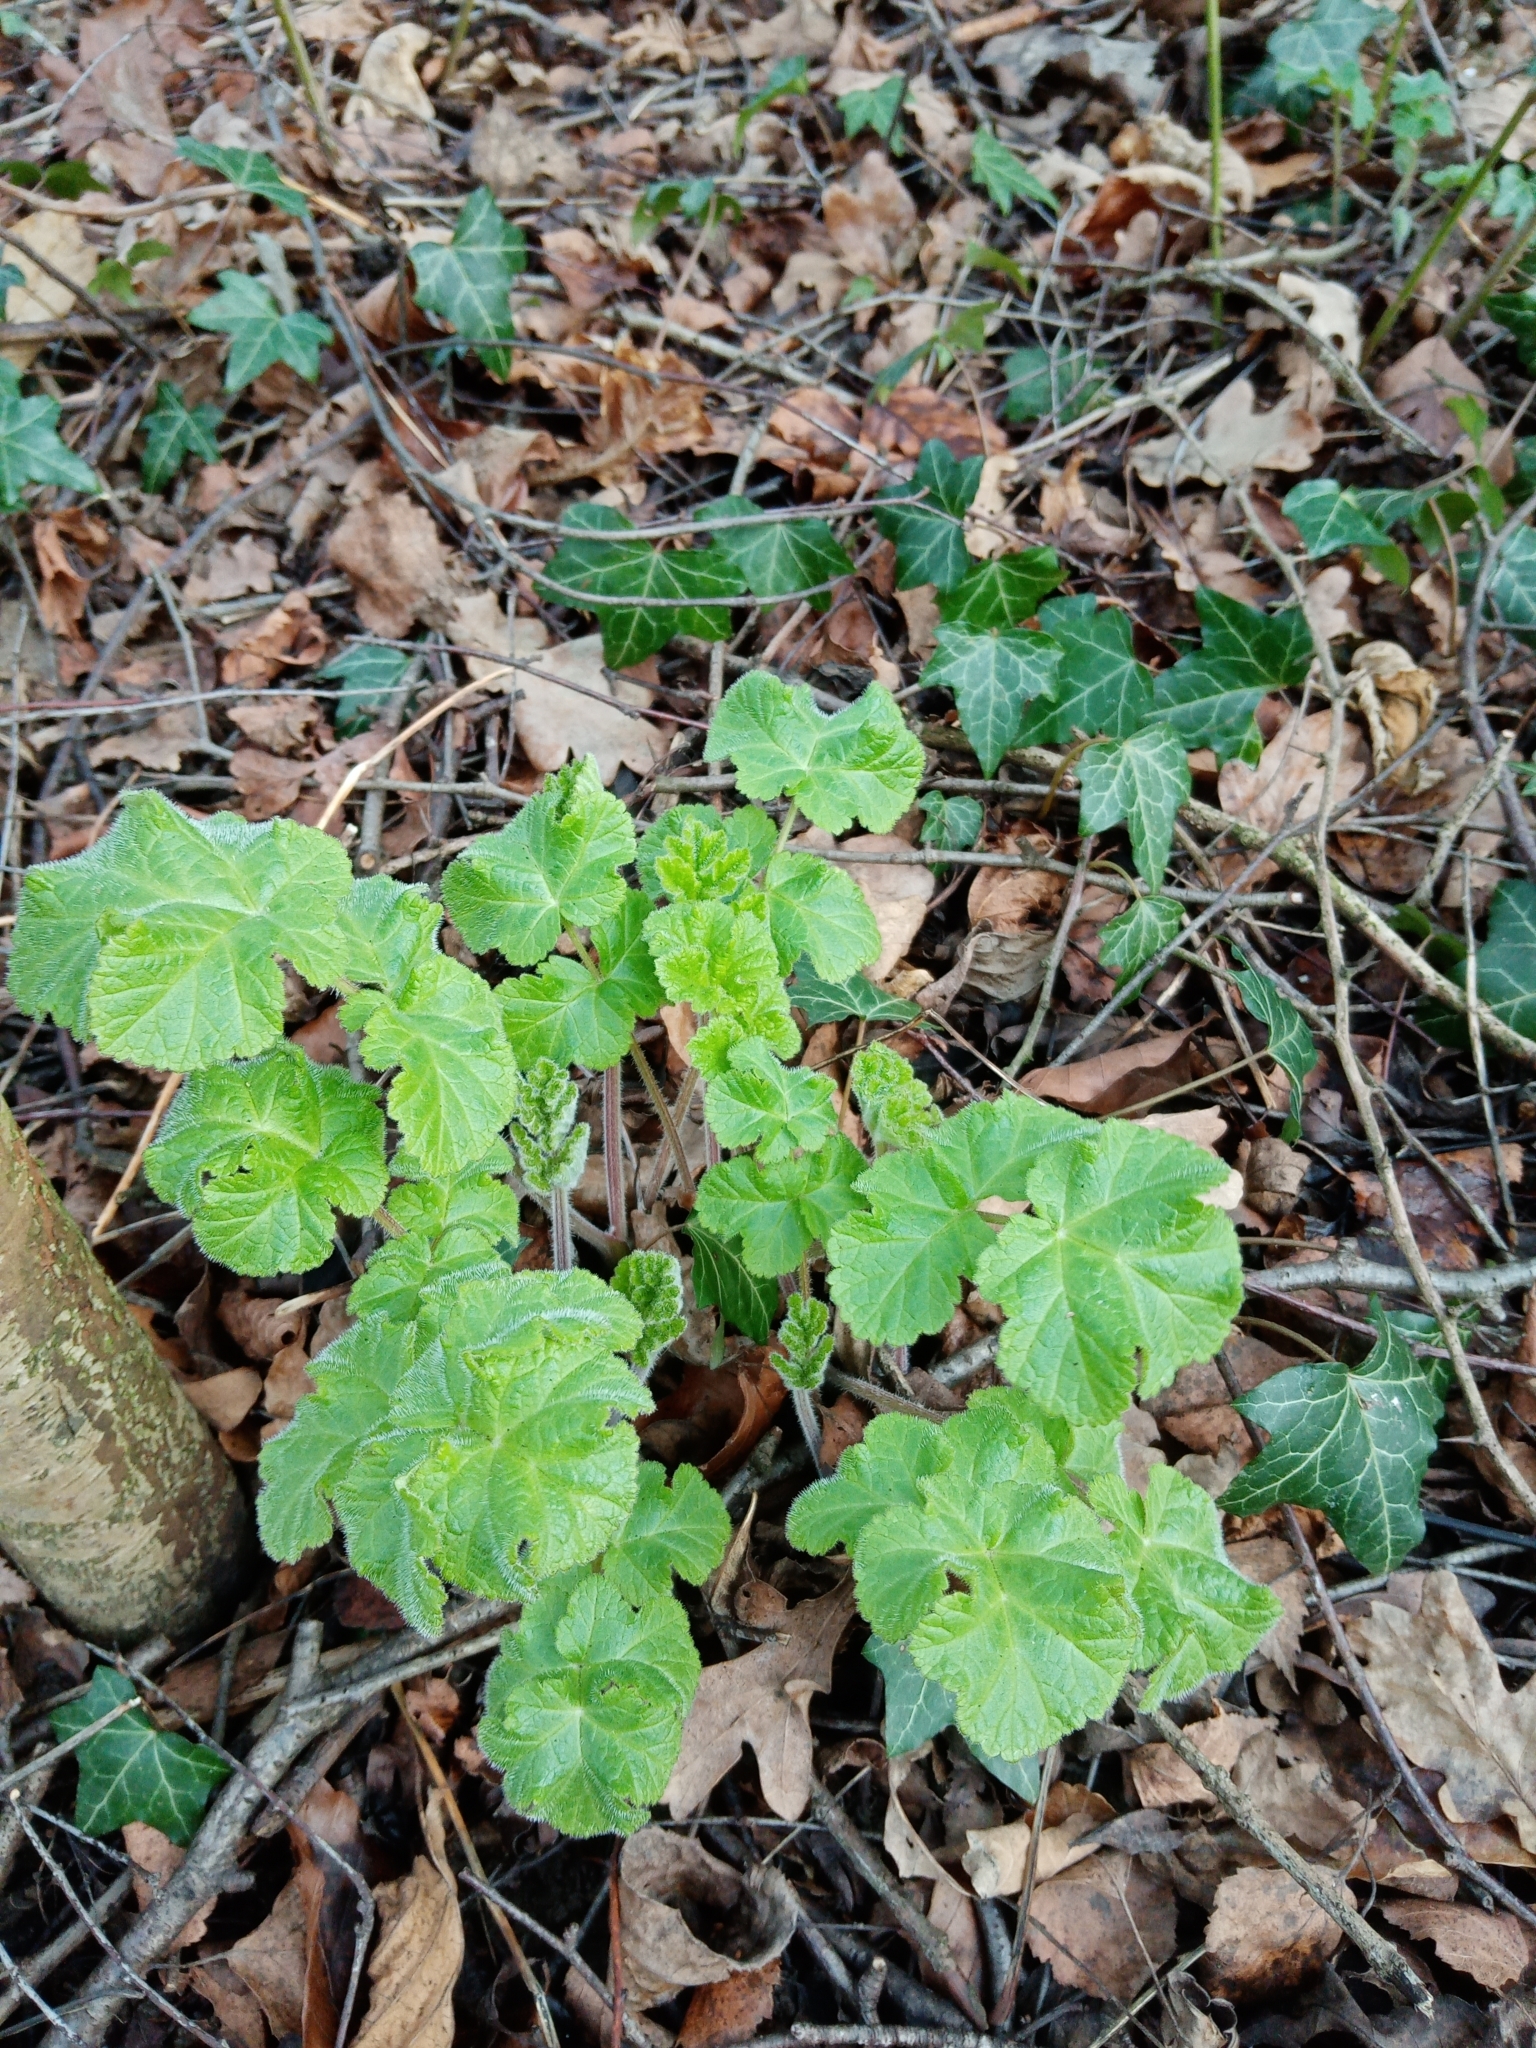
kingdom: Plantae
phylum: Tracheophyta
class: Magnoliopsida
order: Apiales
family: Apiaceae
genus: Heracleum
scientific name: Heracleum sphondylium
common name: Hogweed
